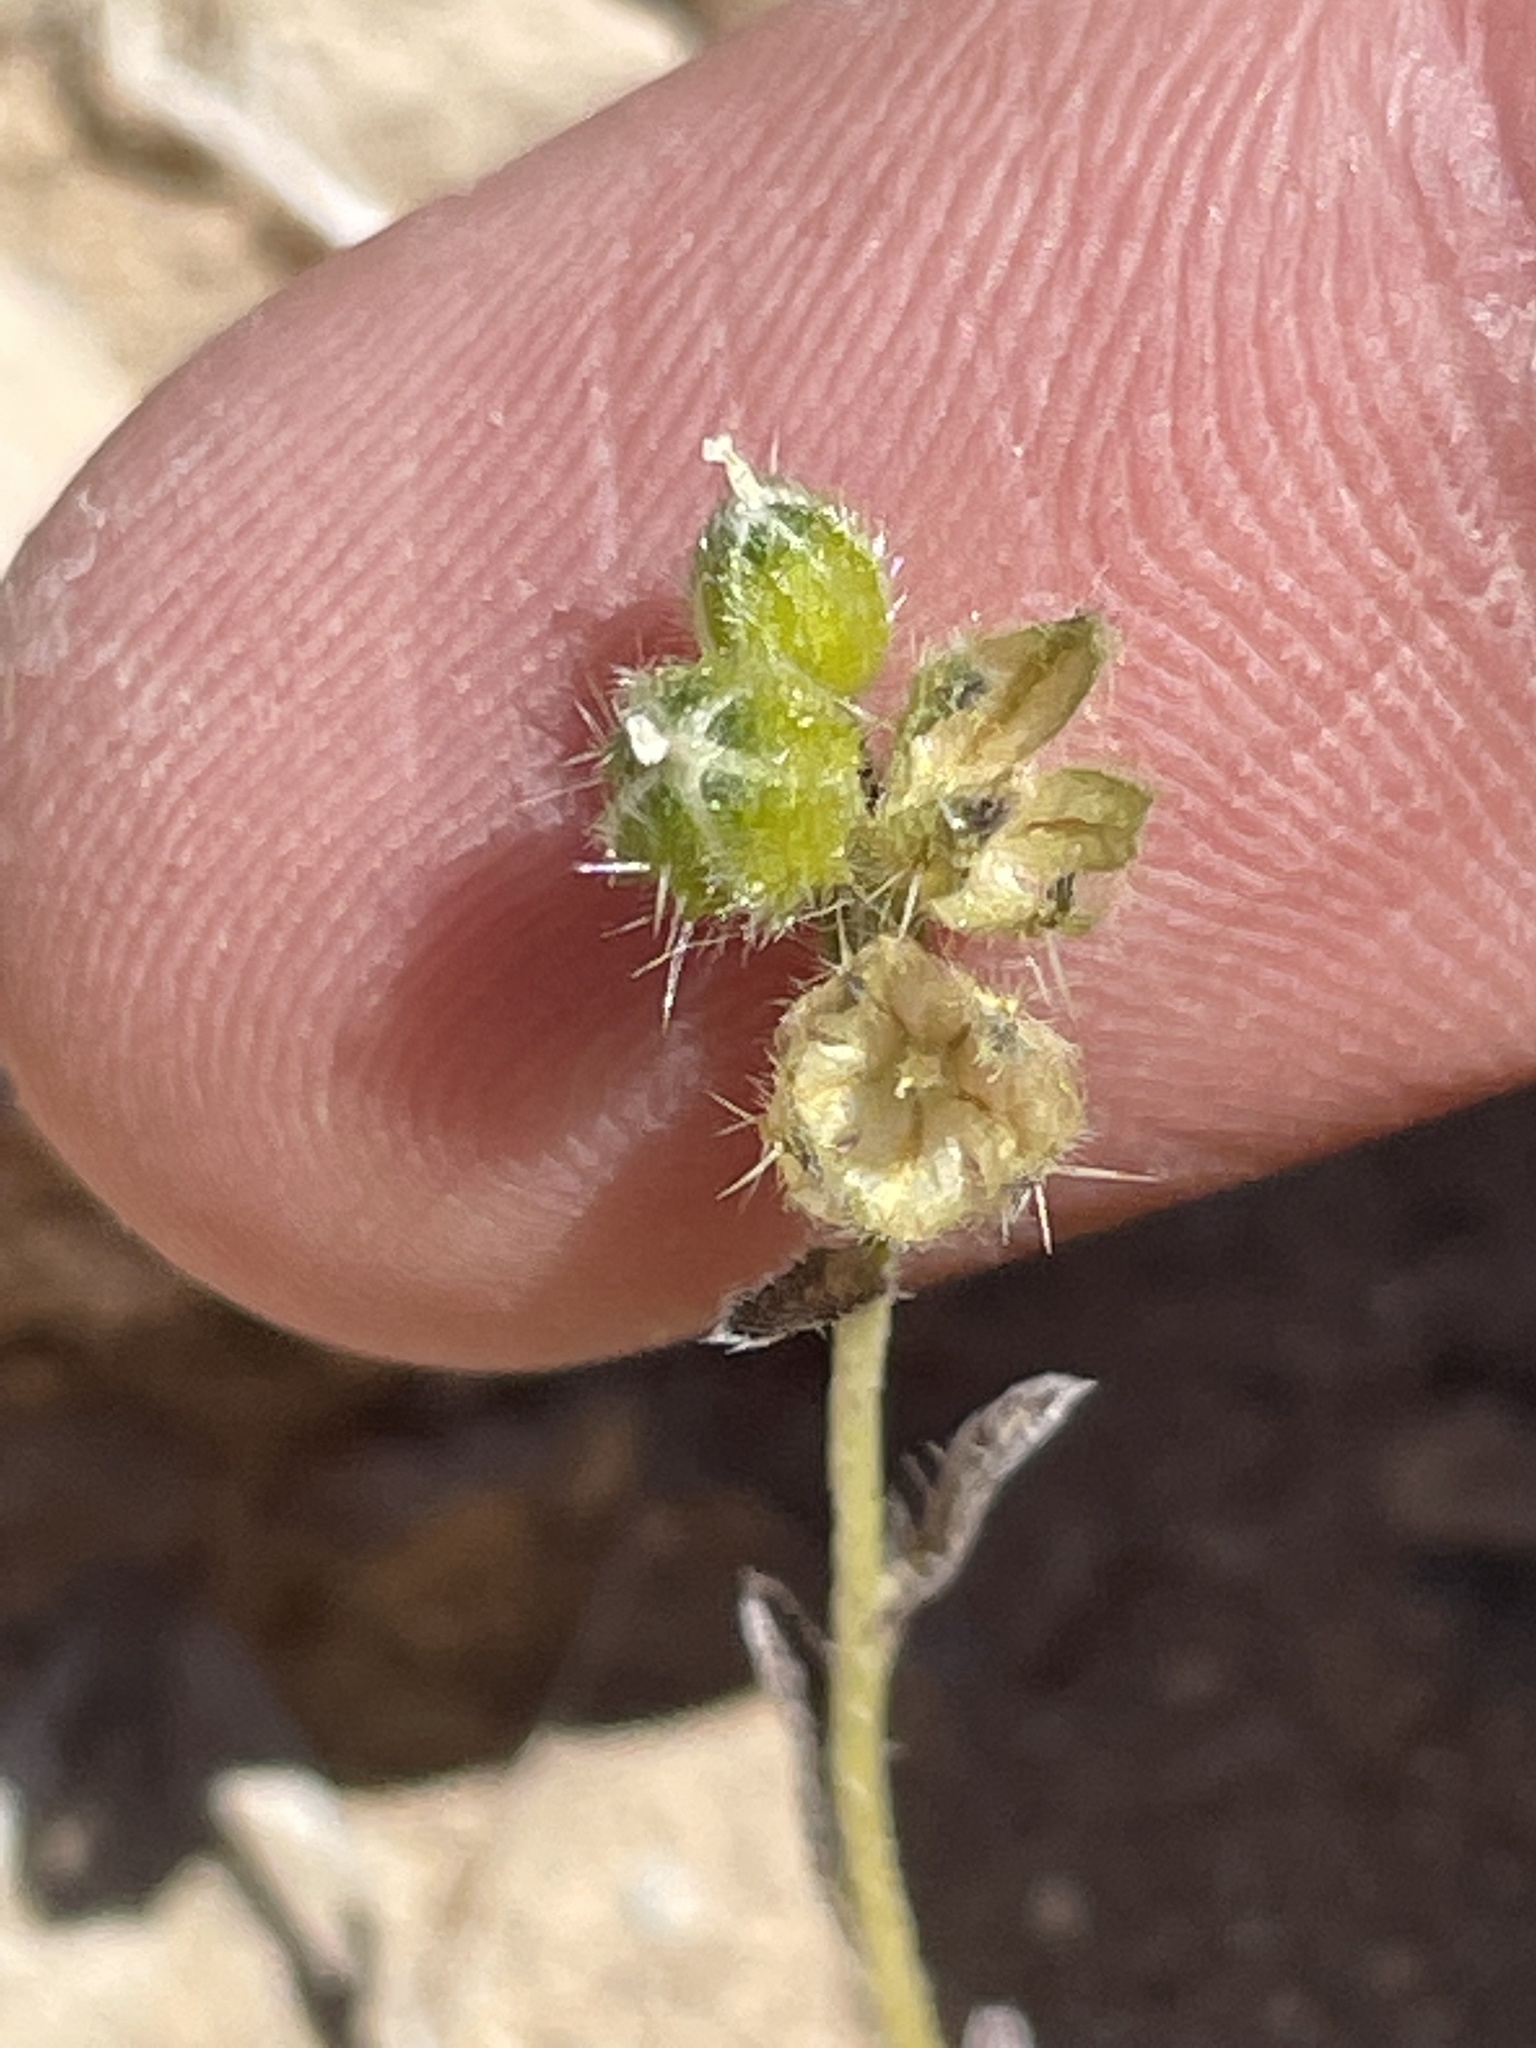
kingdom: Plantae
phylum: Tracheophyta
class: Magnoliopsida
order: Boraginales
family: Boraginaceae
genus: Cryptantha
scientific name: Cryptantha pterocarya
